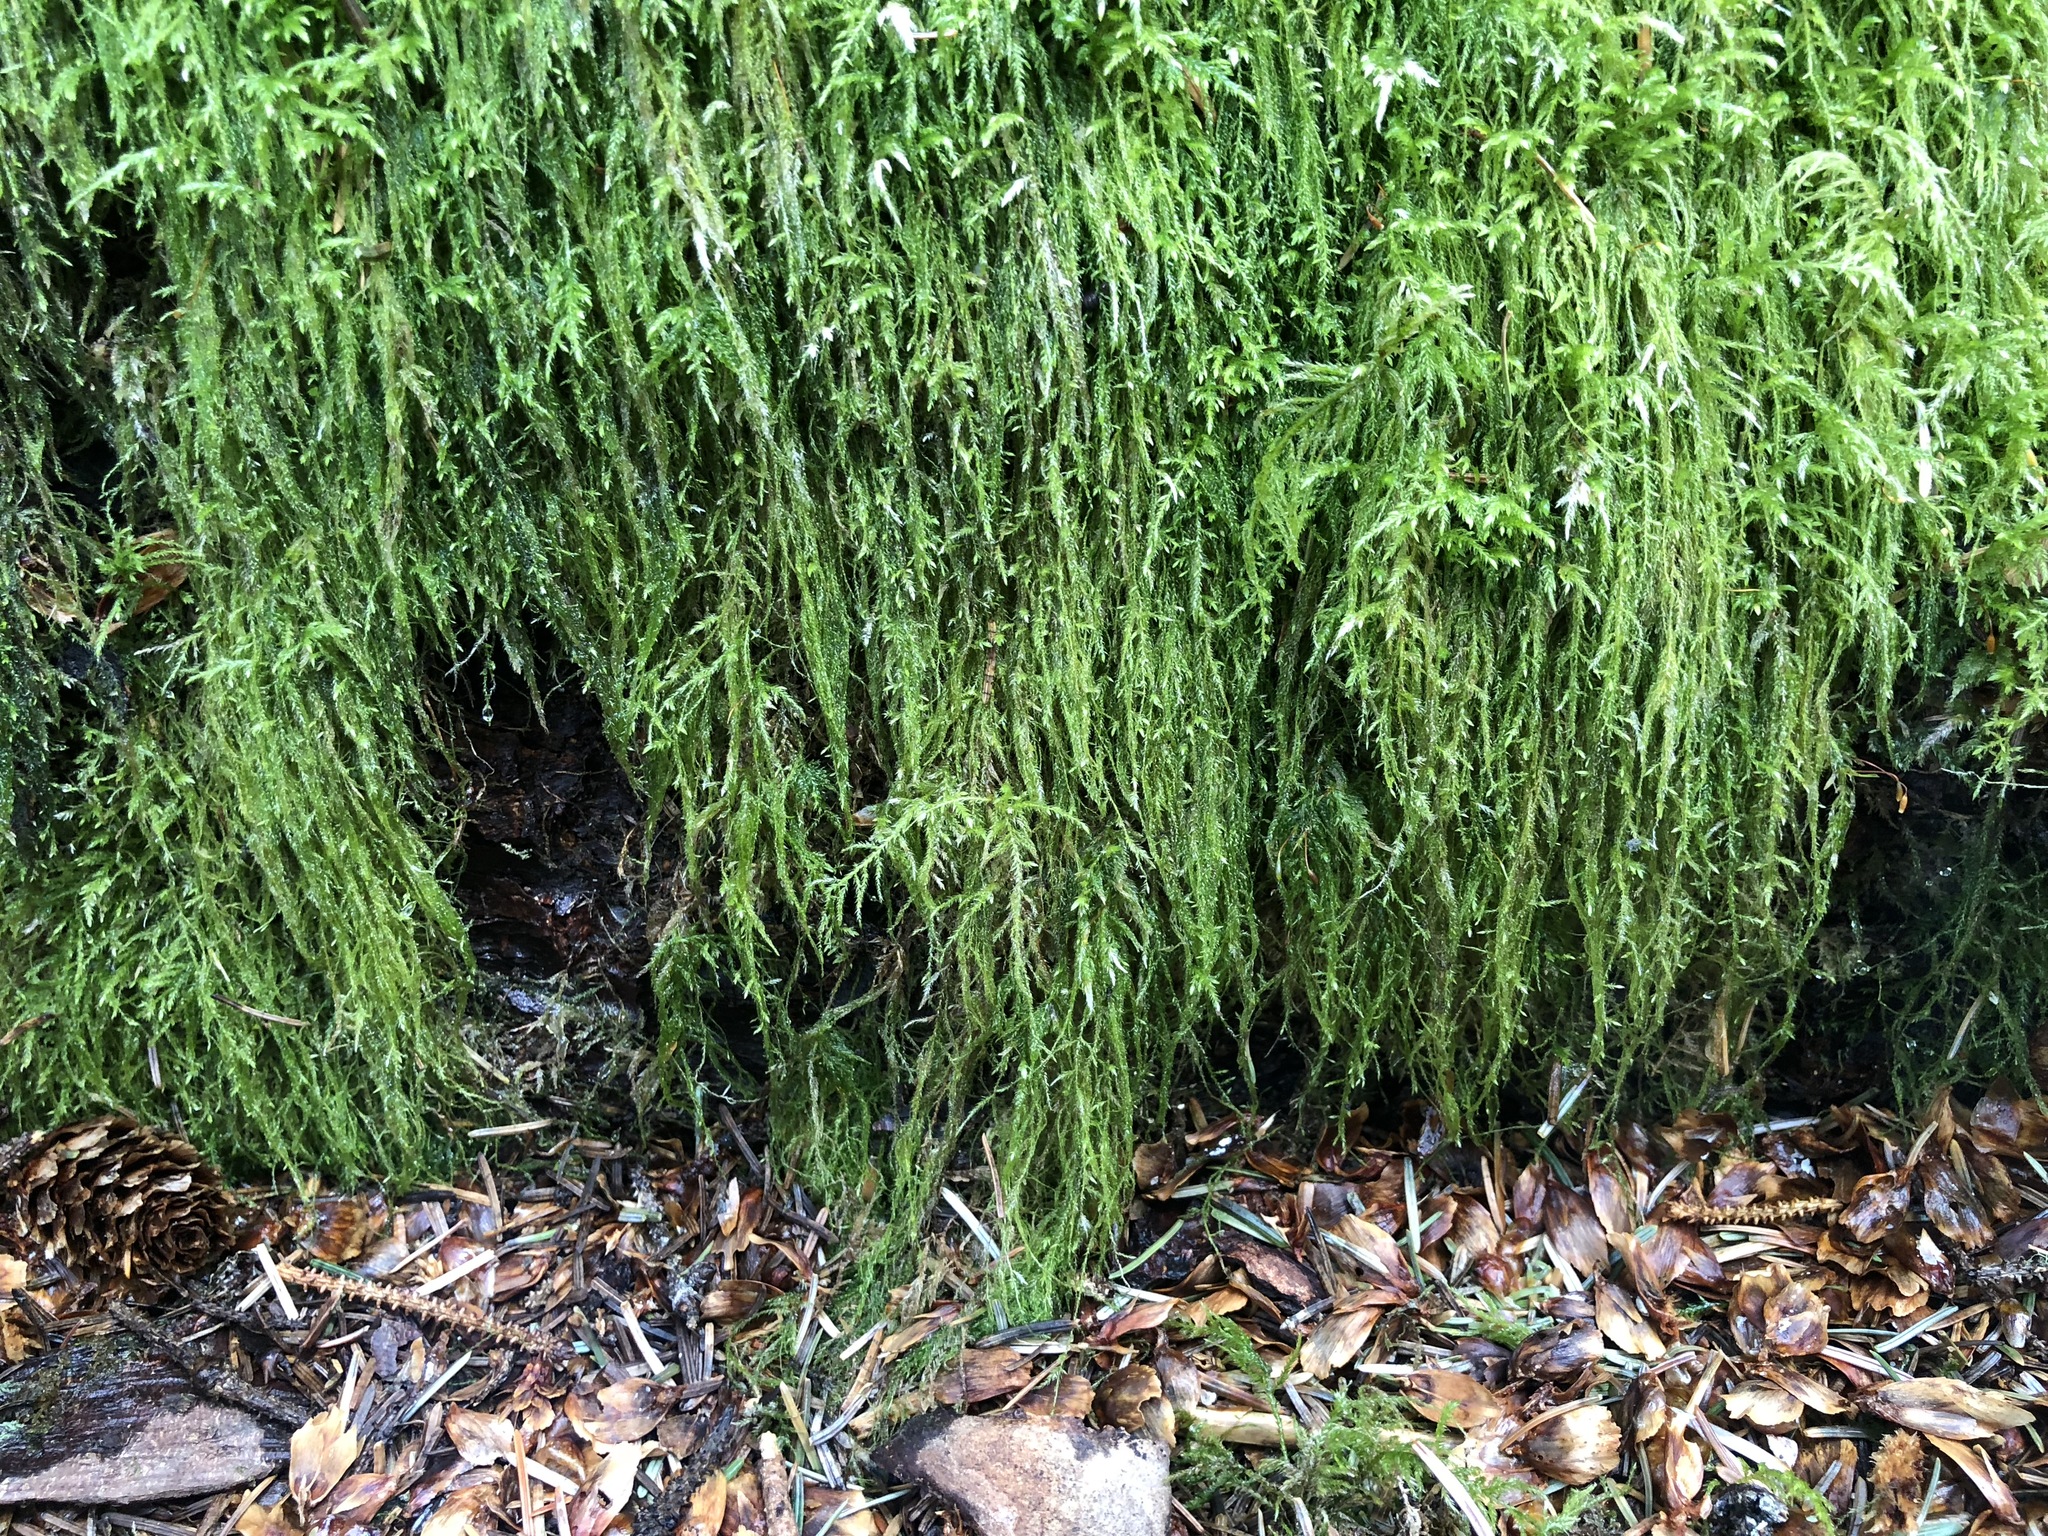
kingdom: Plantae
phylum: Bryophyta
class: Bryopsida
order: Hypnales
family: Lembophyllaceae
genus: Pseudisothecium
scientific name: Pseudisothecium stoloniferum
